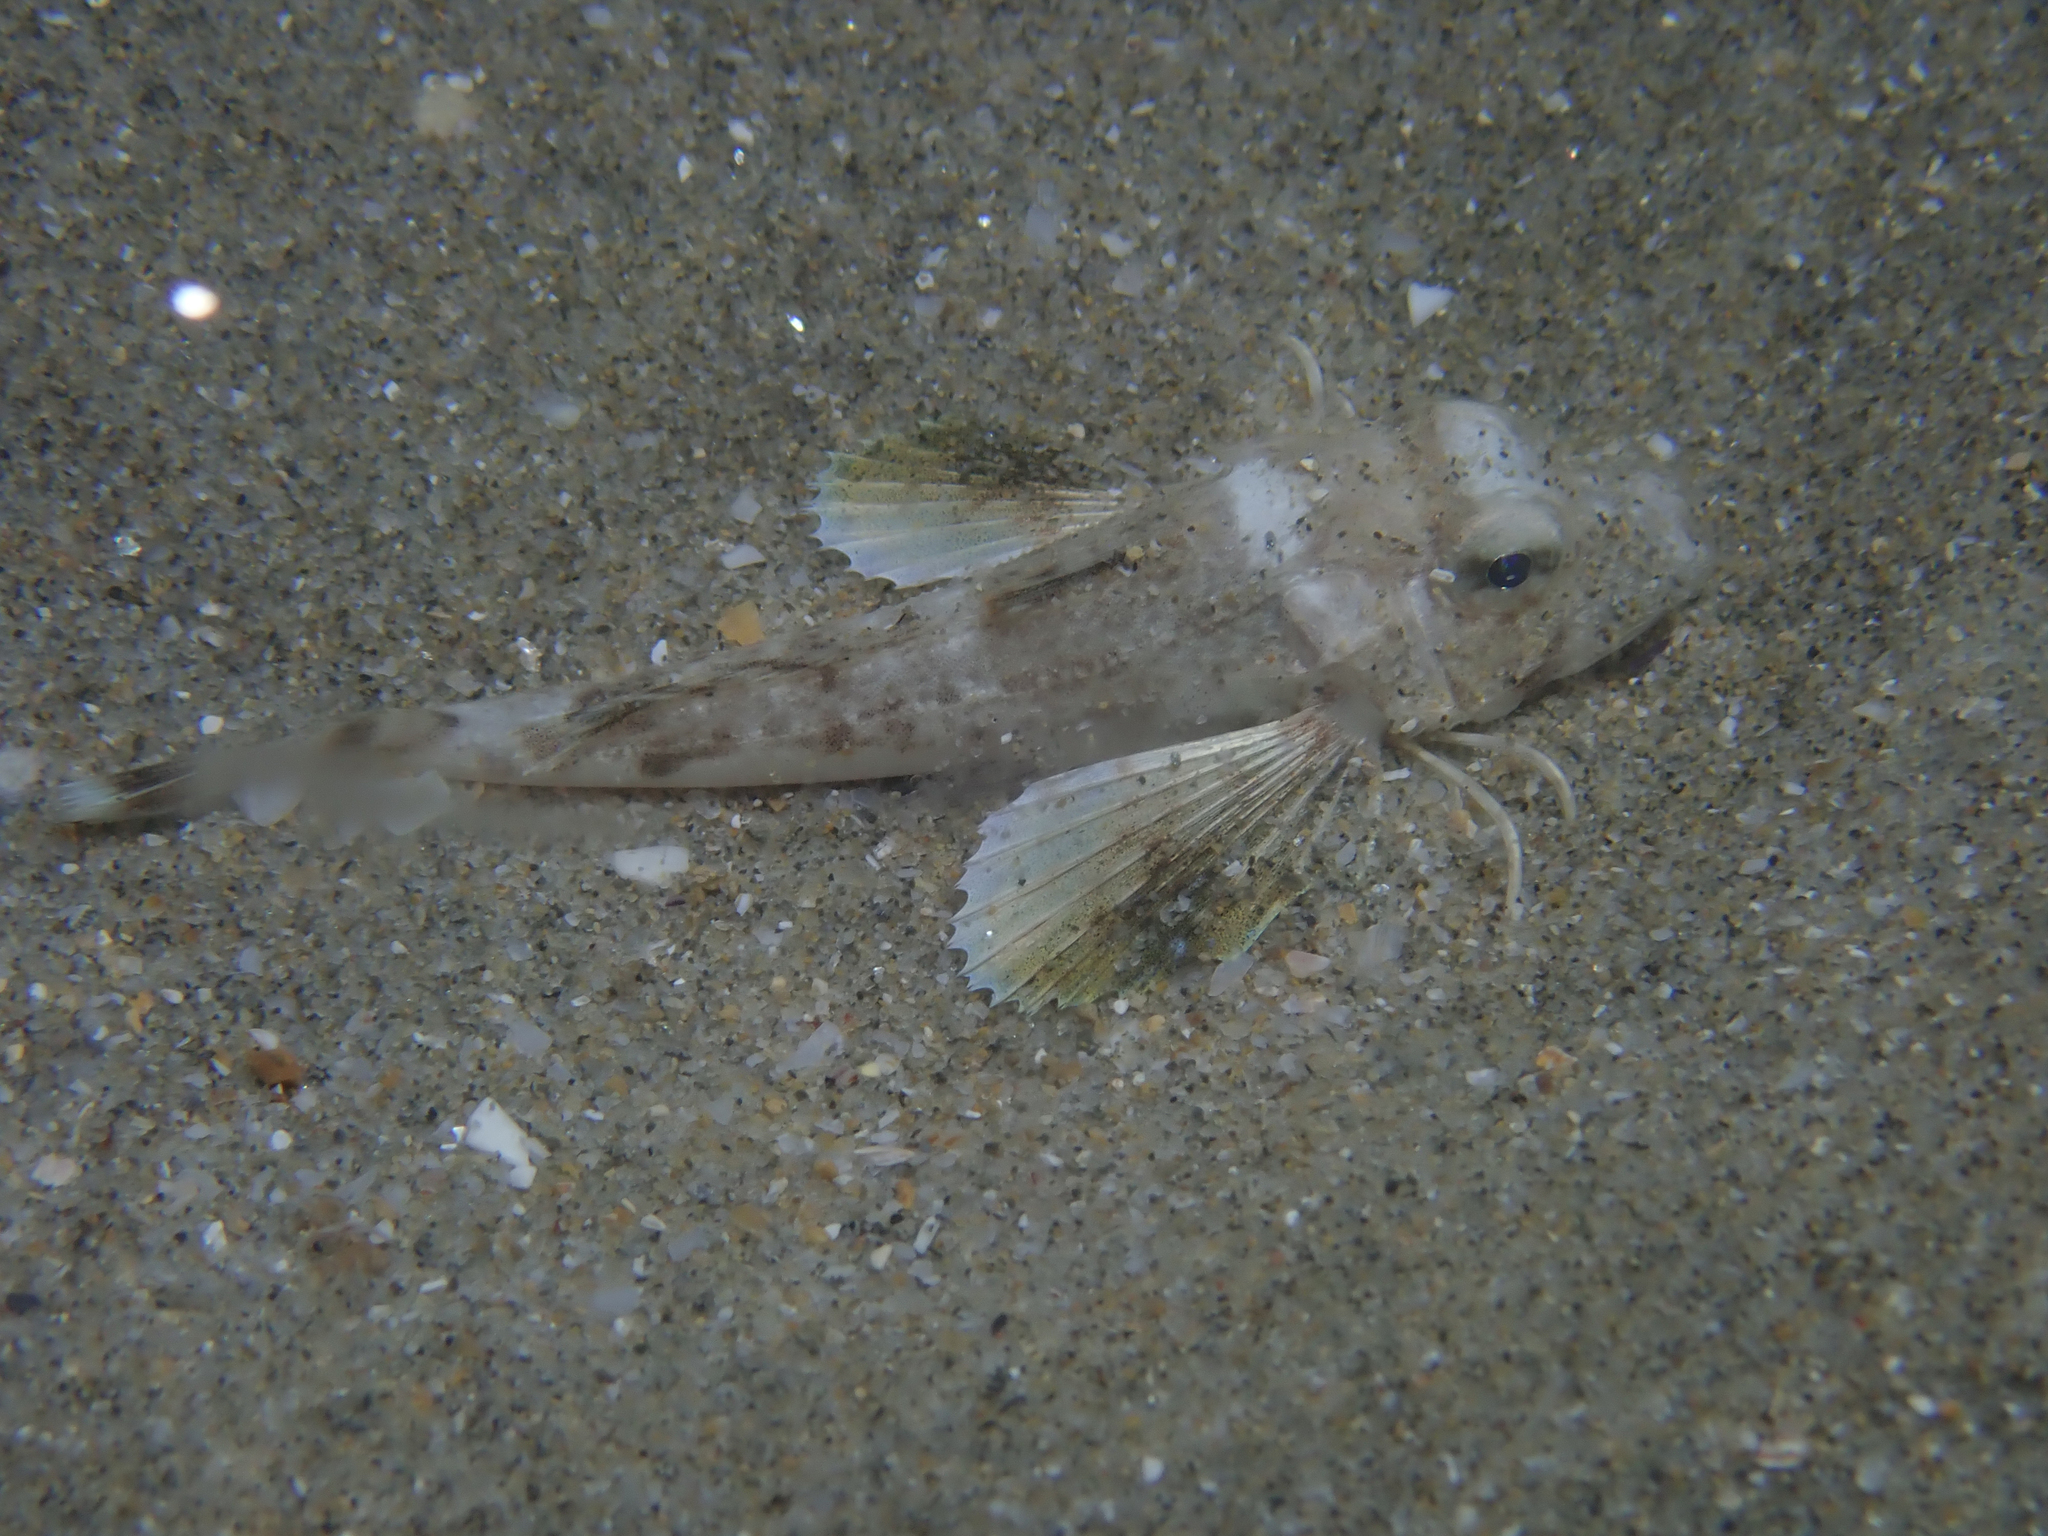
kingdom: Animalia
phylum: Chordata
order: Scorpaeniformes
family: Triglidae
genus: Chelidonichthys
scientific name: Chelidonichthys lucerna
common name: Tub gurnard
